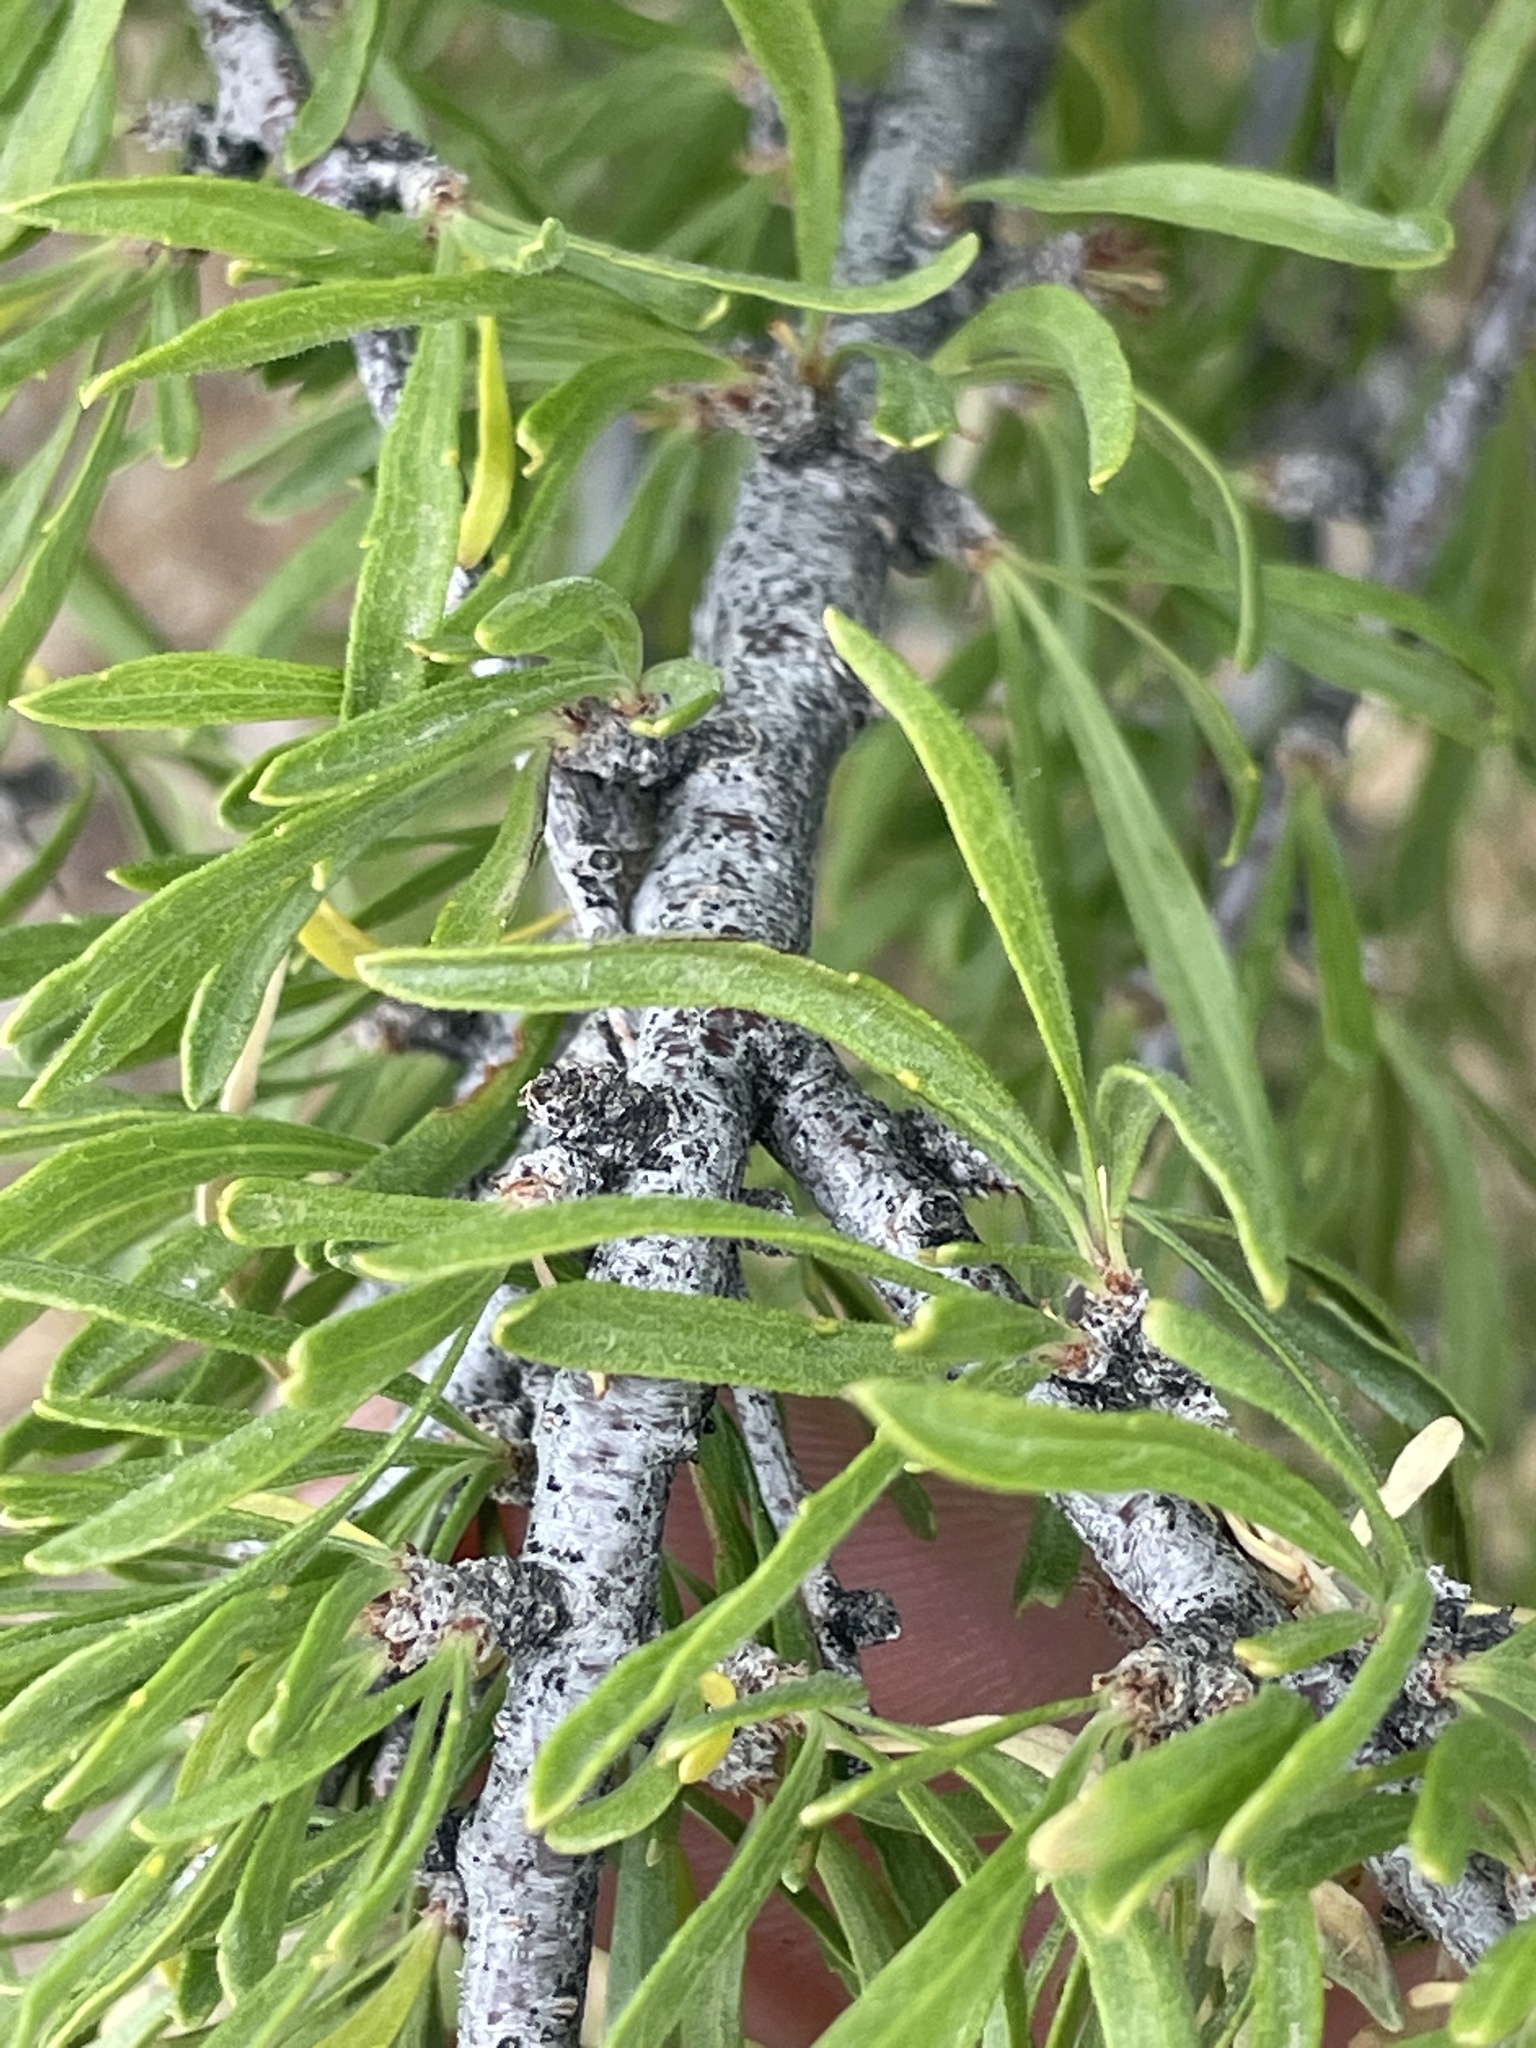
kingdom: Plantae
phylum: Tracheophyta
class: Magnoliopsida
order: Rosales
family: Rosaceae
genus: Prunus
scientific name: Prunus fasciculata
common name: Desert almond
